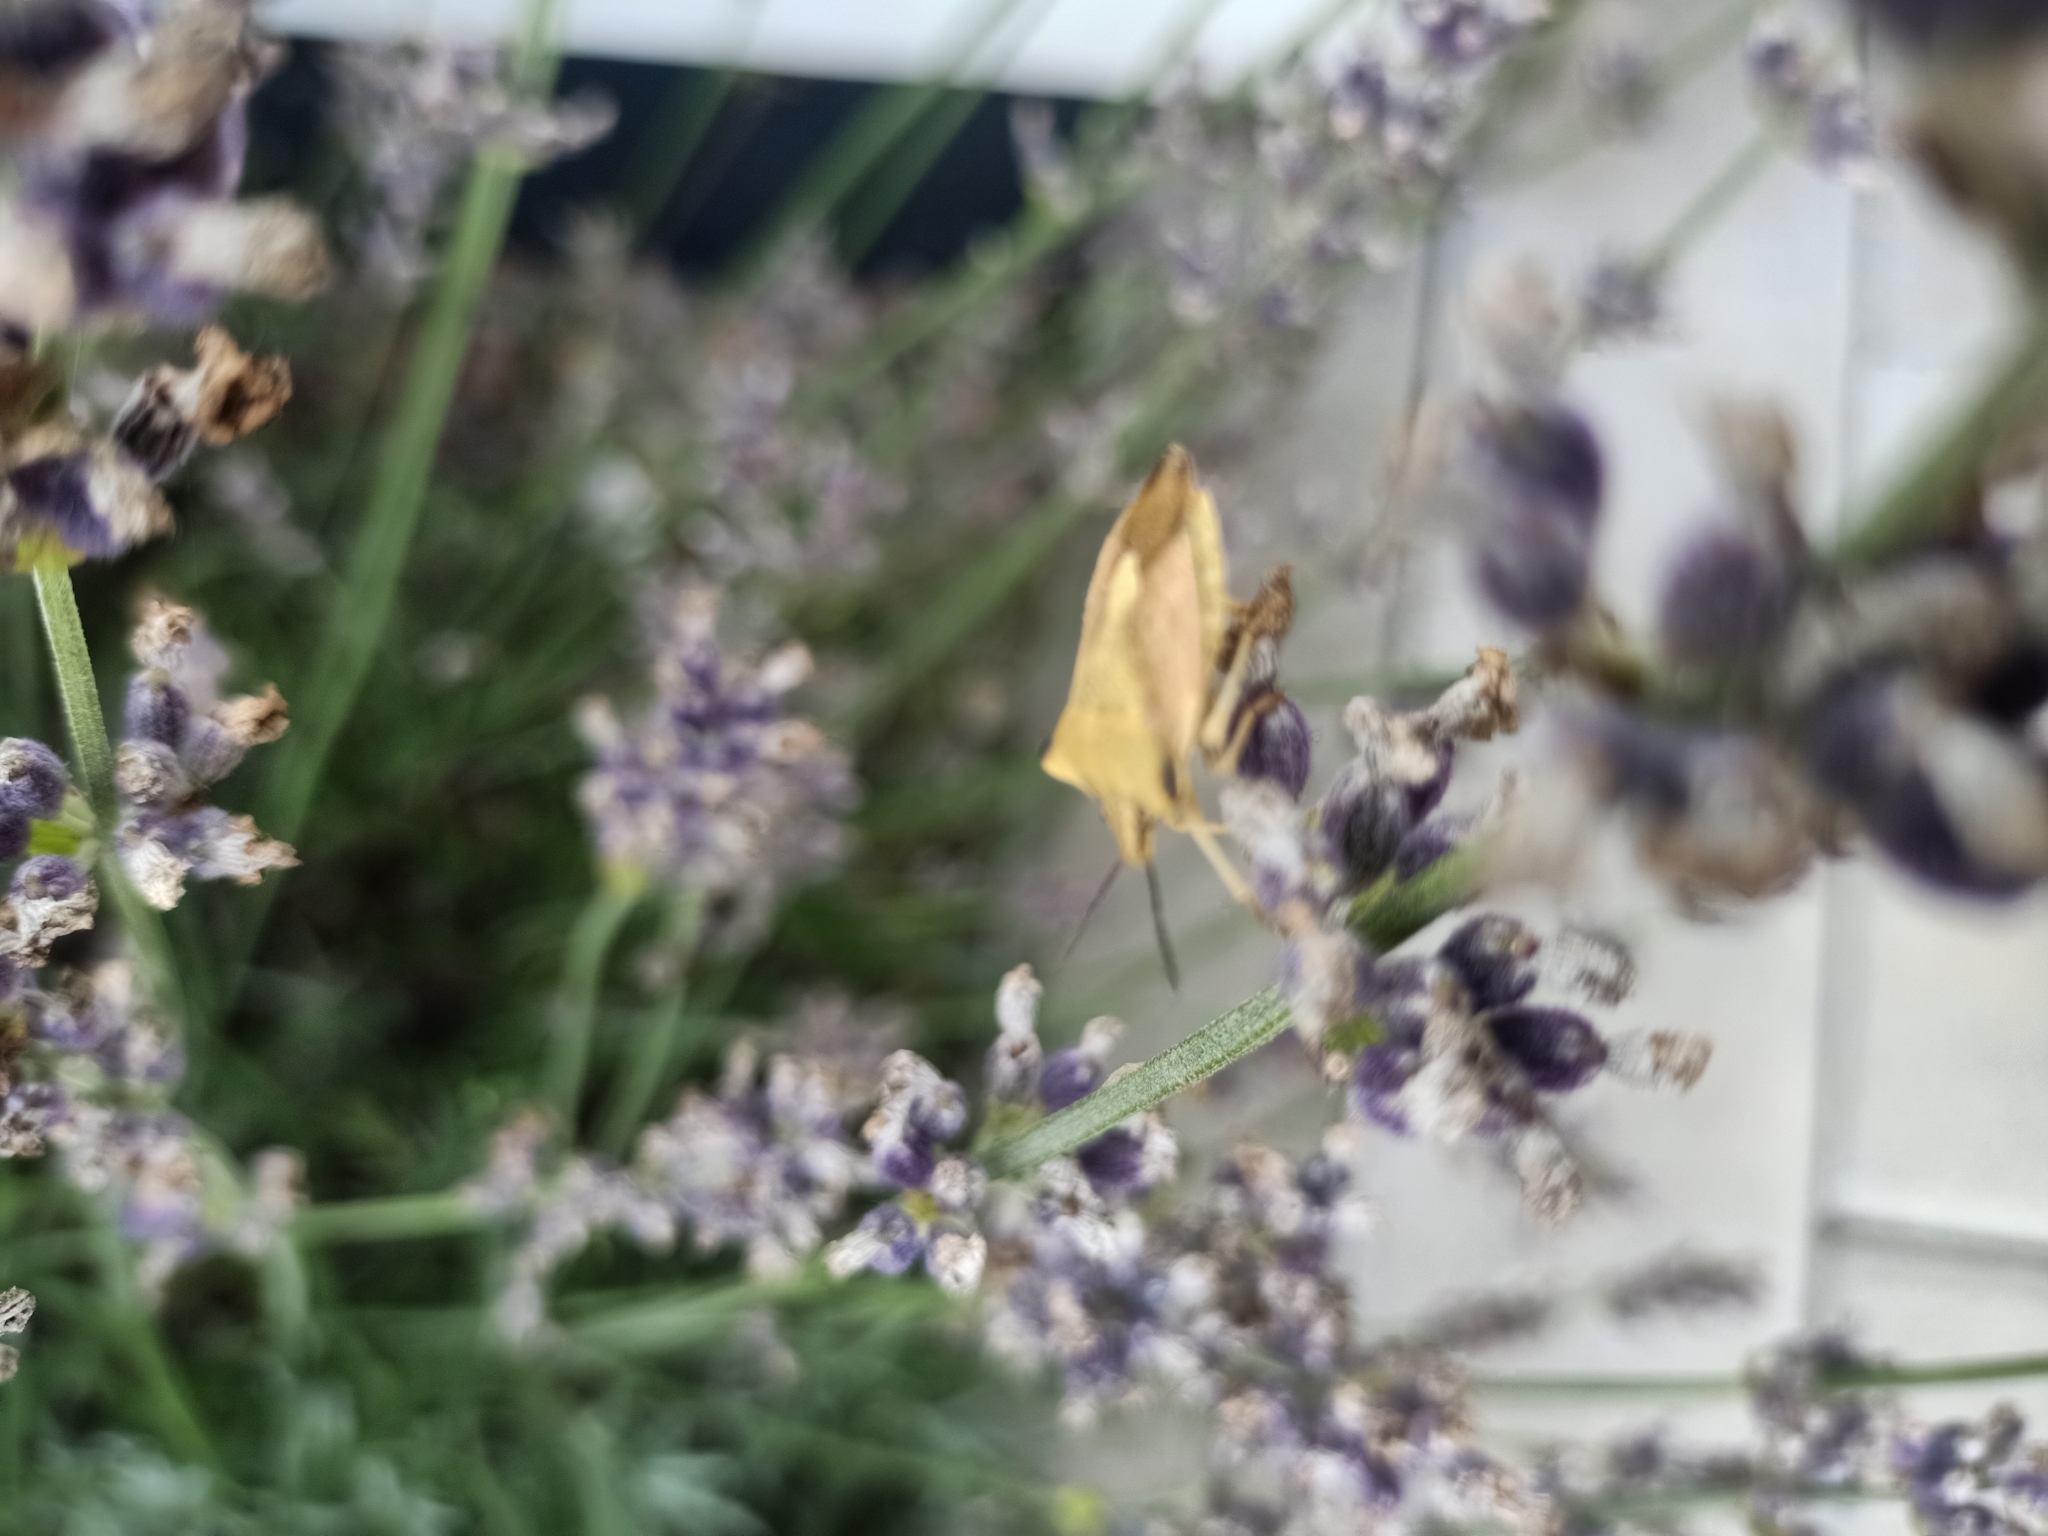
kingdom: Animalia
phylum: Arthropoda
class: Insecta
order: Hemiptera
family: Pentatomidae
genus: Carpocoris
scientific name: Carpocoris fuscispinus
